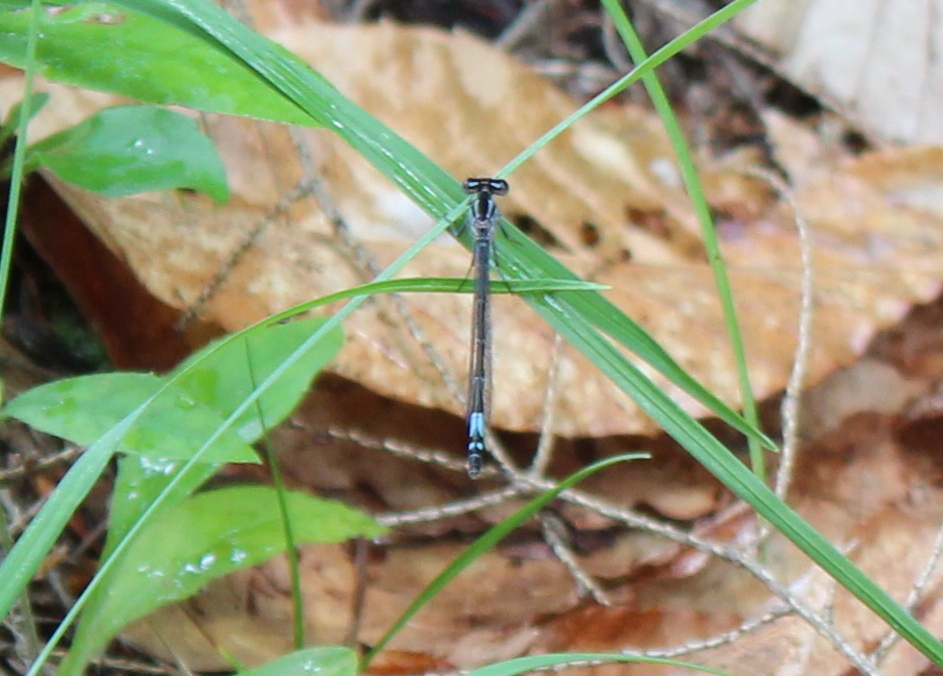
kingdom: Animalia
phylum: Arthropoda
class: Insecta
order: Odonata
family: Coenagrionidae
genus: Enallagma
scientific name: Enallagma aspersum
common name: Azure bluet
